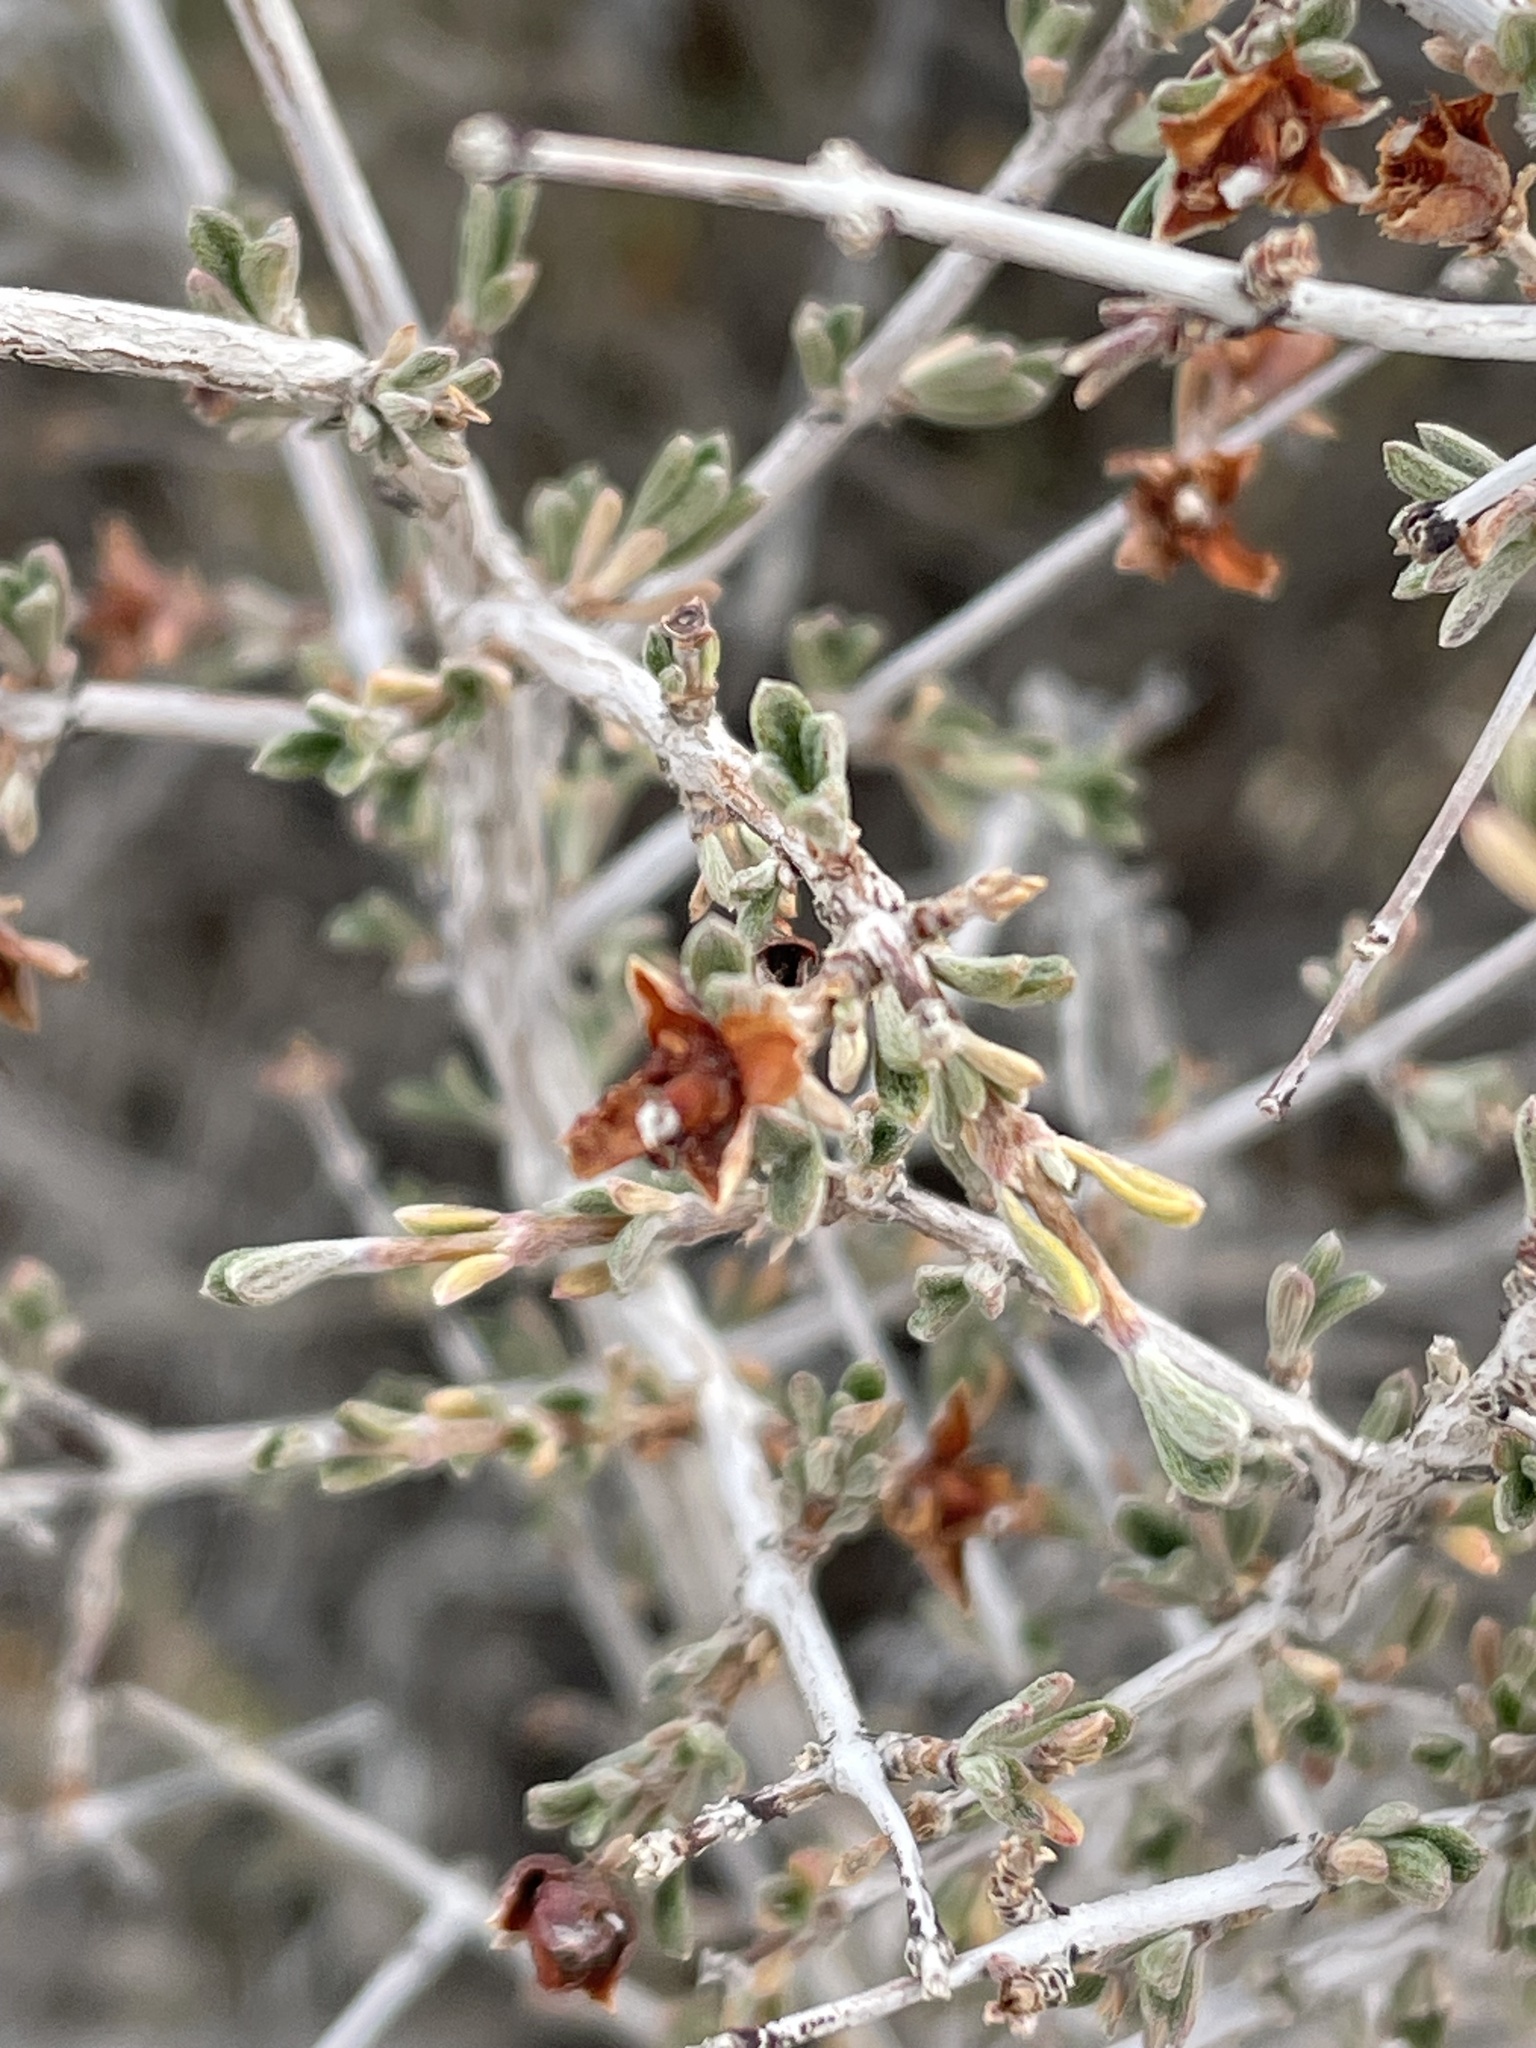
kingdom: Plantae
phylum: Tracheophyta
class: Magnoliopsida
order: Rosales
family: Rosaceae
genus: Coleogyne
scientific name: Coleogyne ramosissima
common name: Blackbrush
